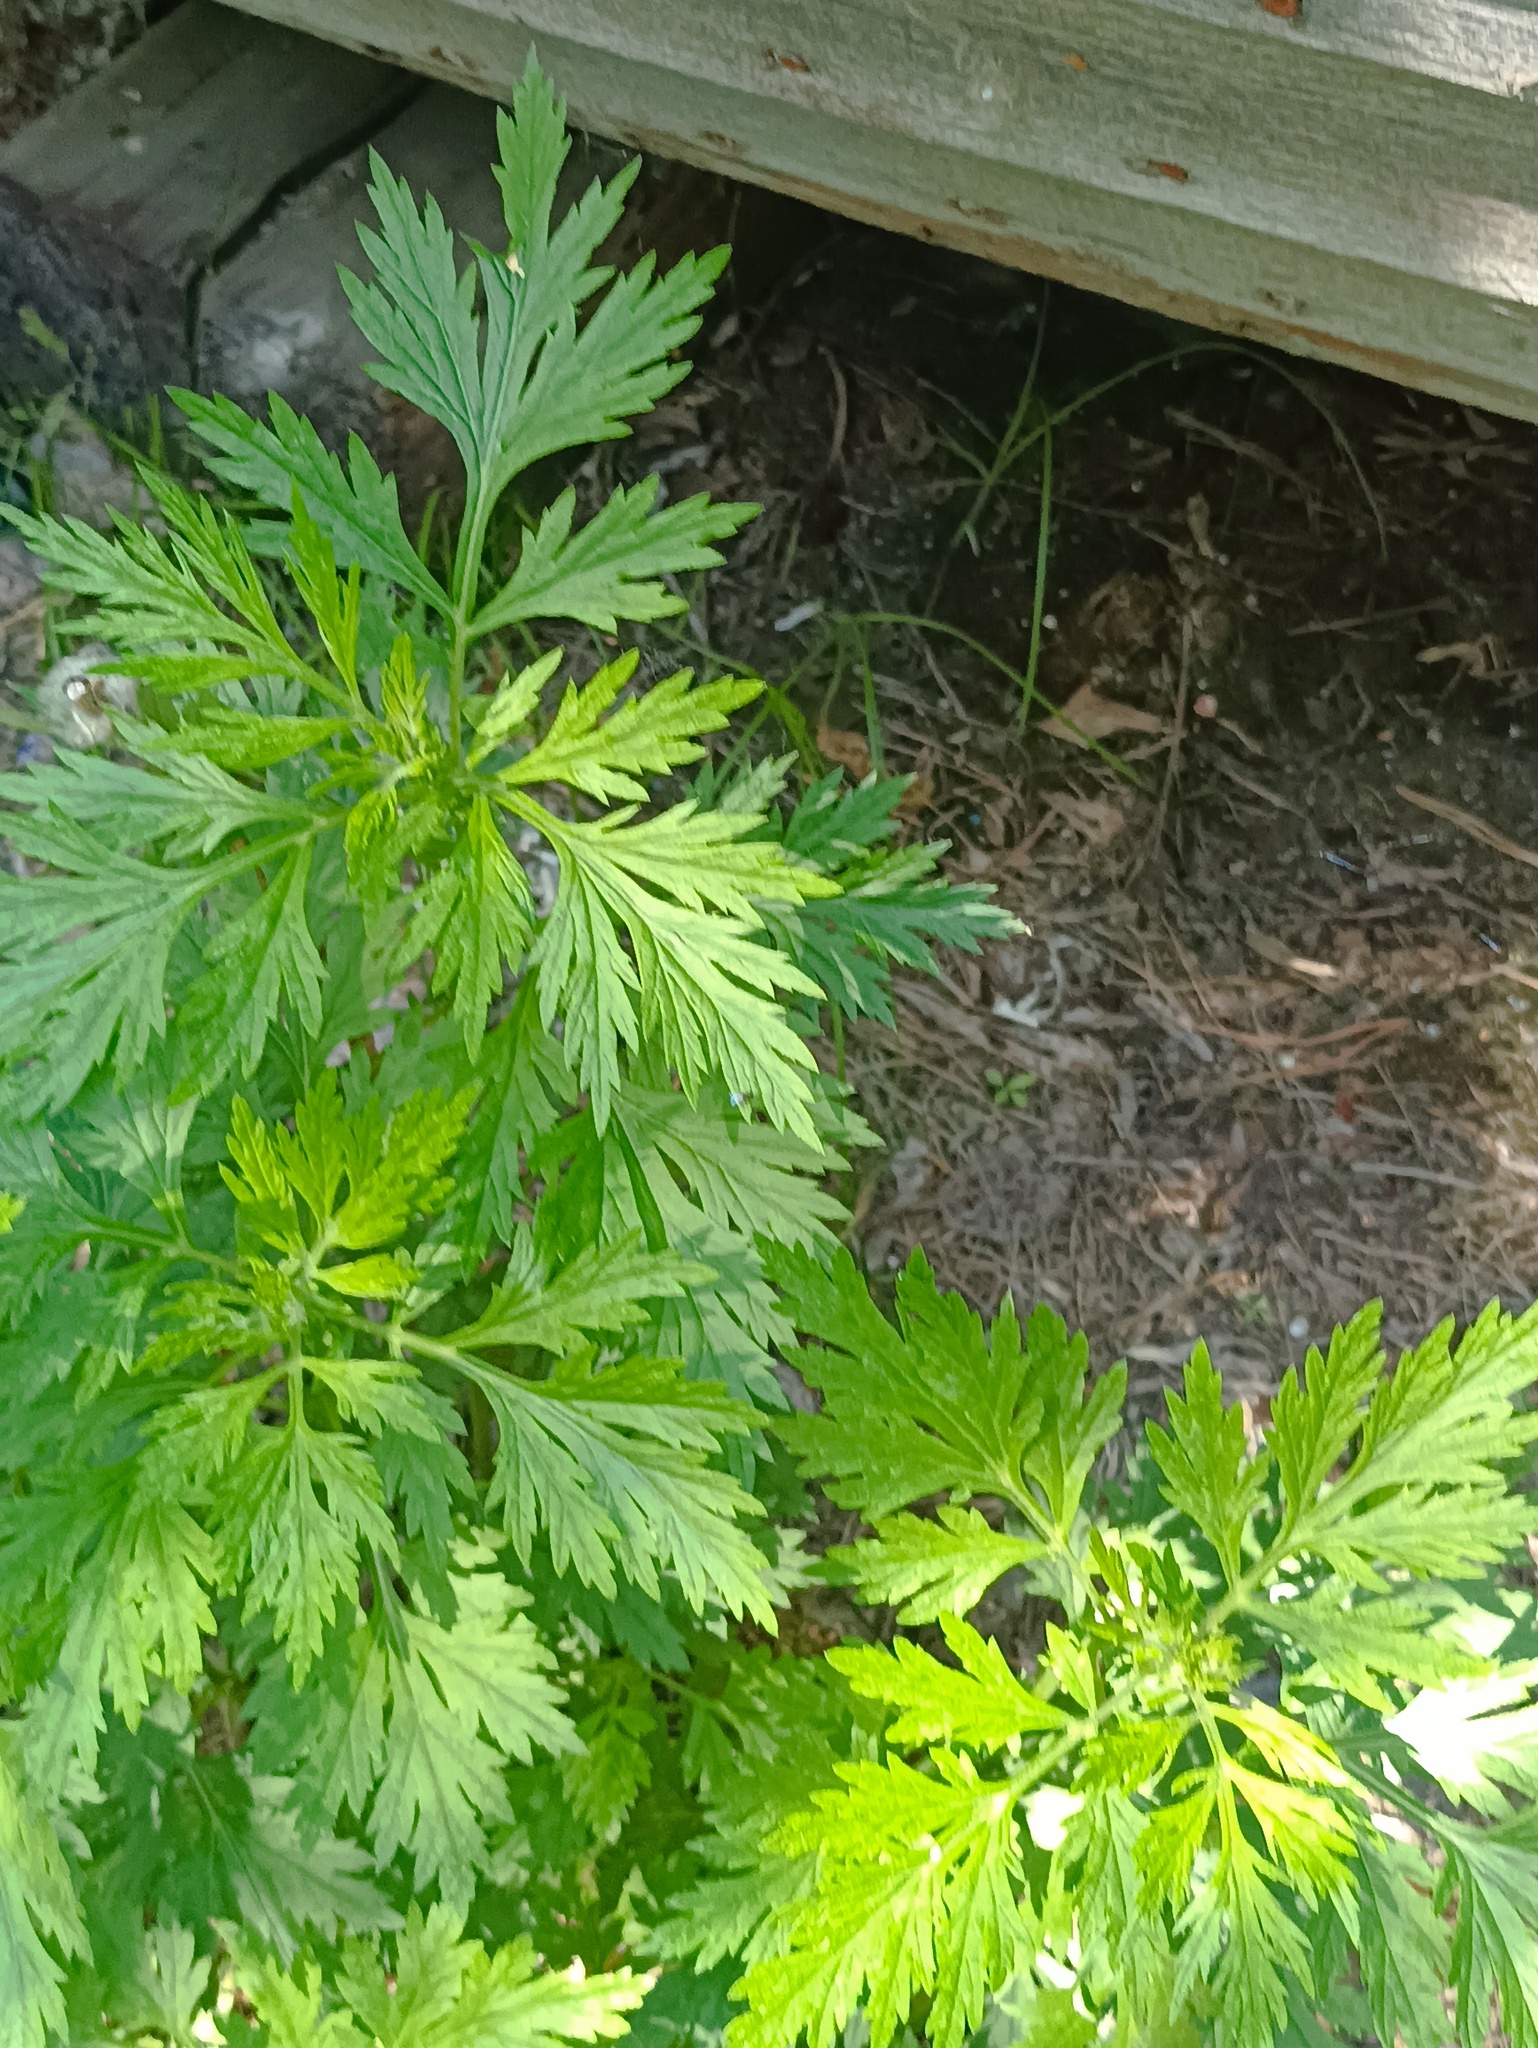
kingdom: Plantae
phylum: Tracheophyta
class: Magnoliopsida
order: Asterales
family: Asteraceae
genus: Artemisia
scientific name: Artemisia vulgaris
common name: Mugwort
